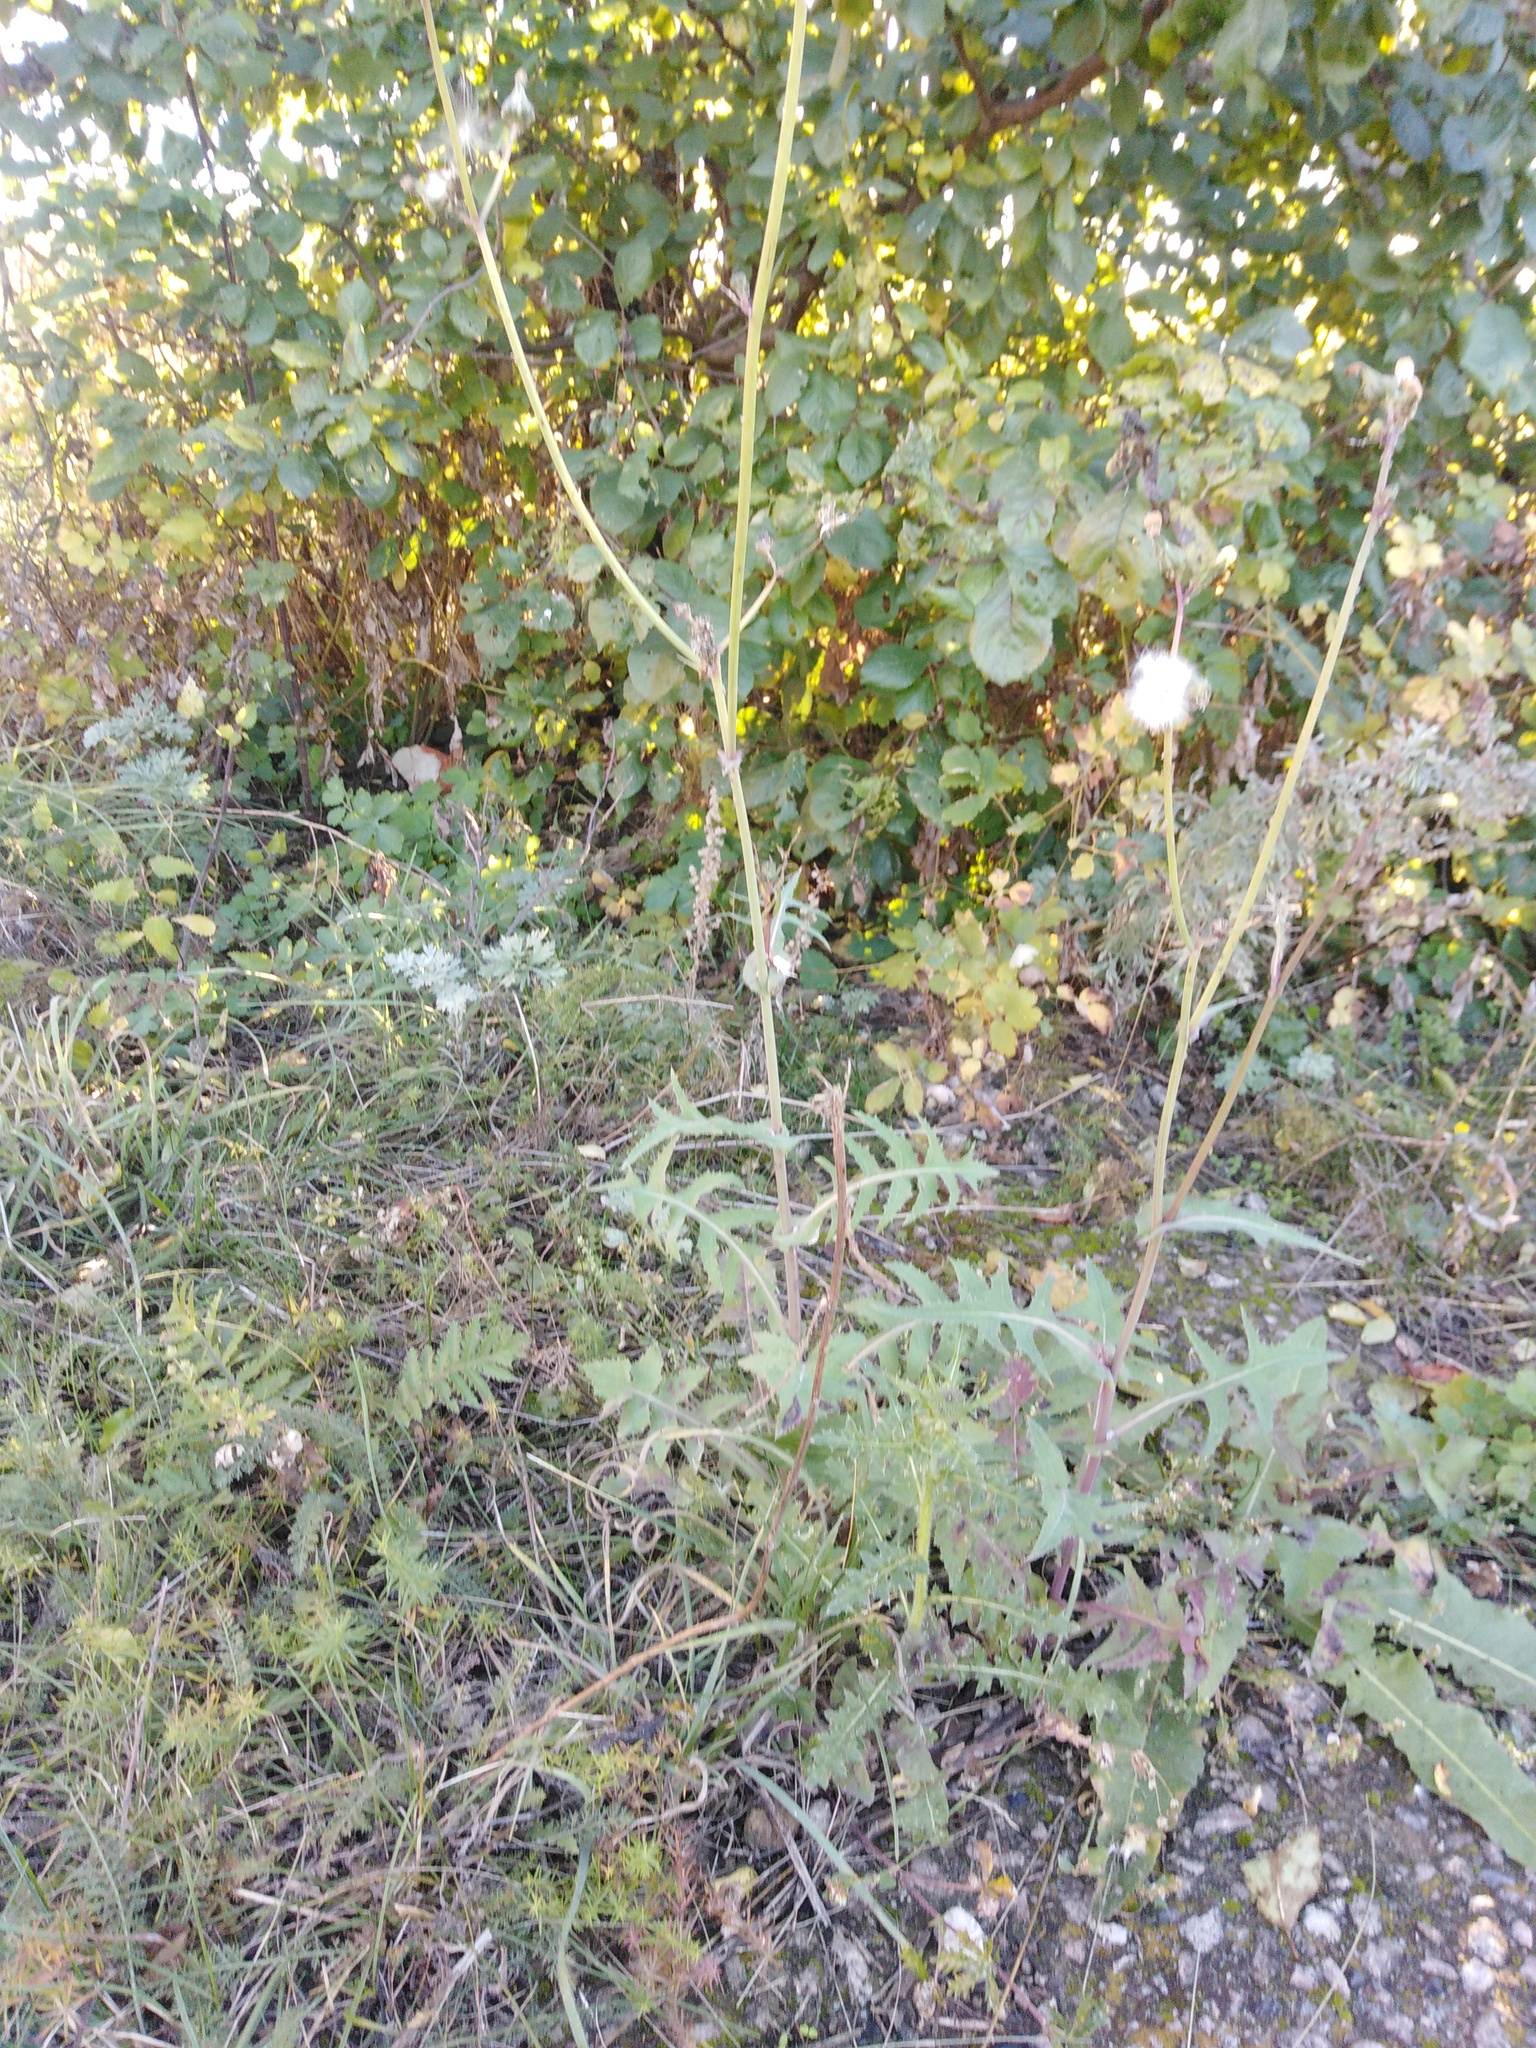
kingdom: Plantae
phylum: Tracheophyta
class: Magnoliopsida
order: Asterales
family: Asteraceae
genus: Sonchus
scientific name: Sonchus arvensis
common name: Perennial sow-thistle
